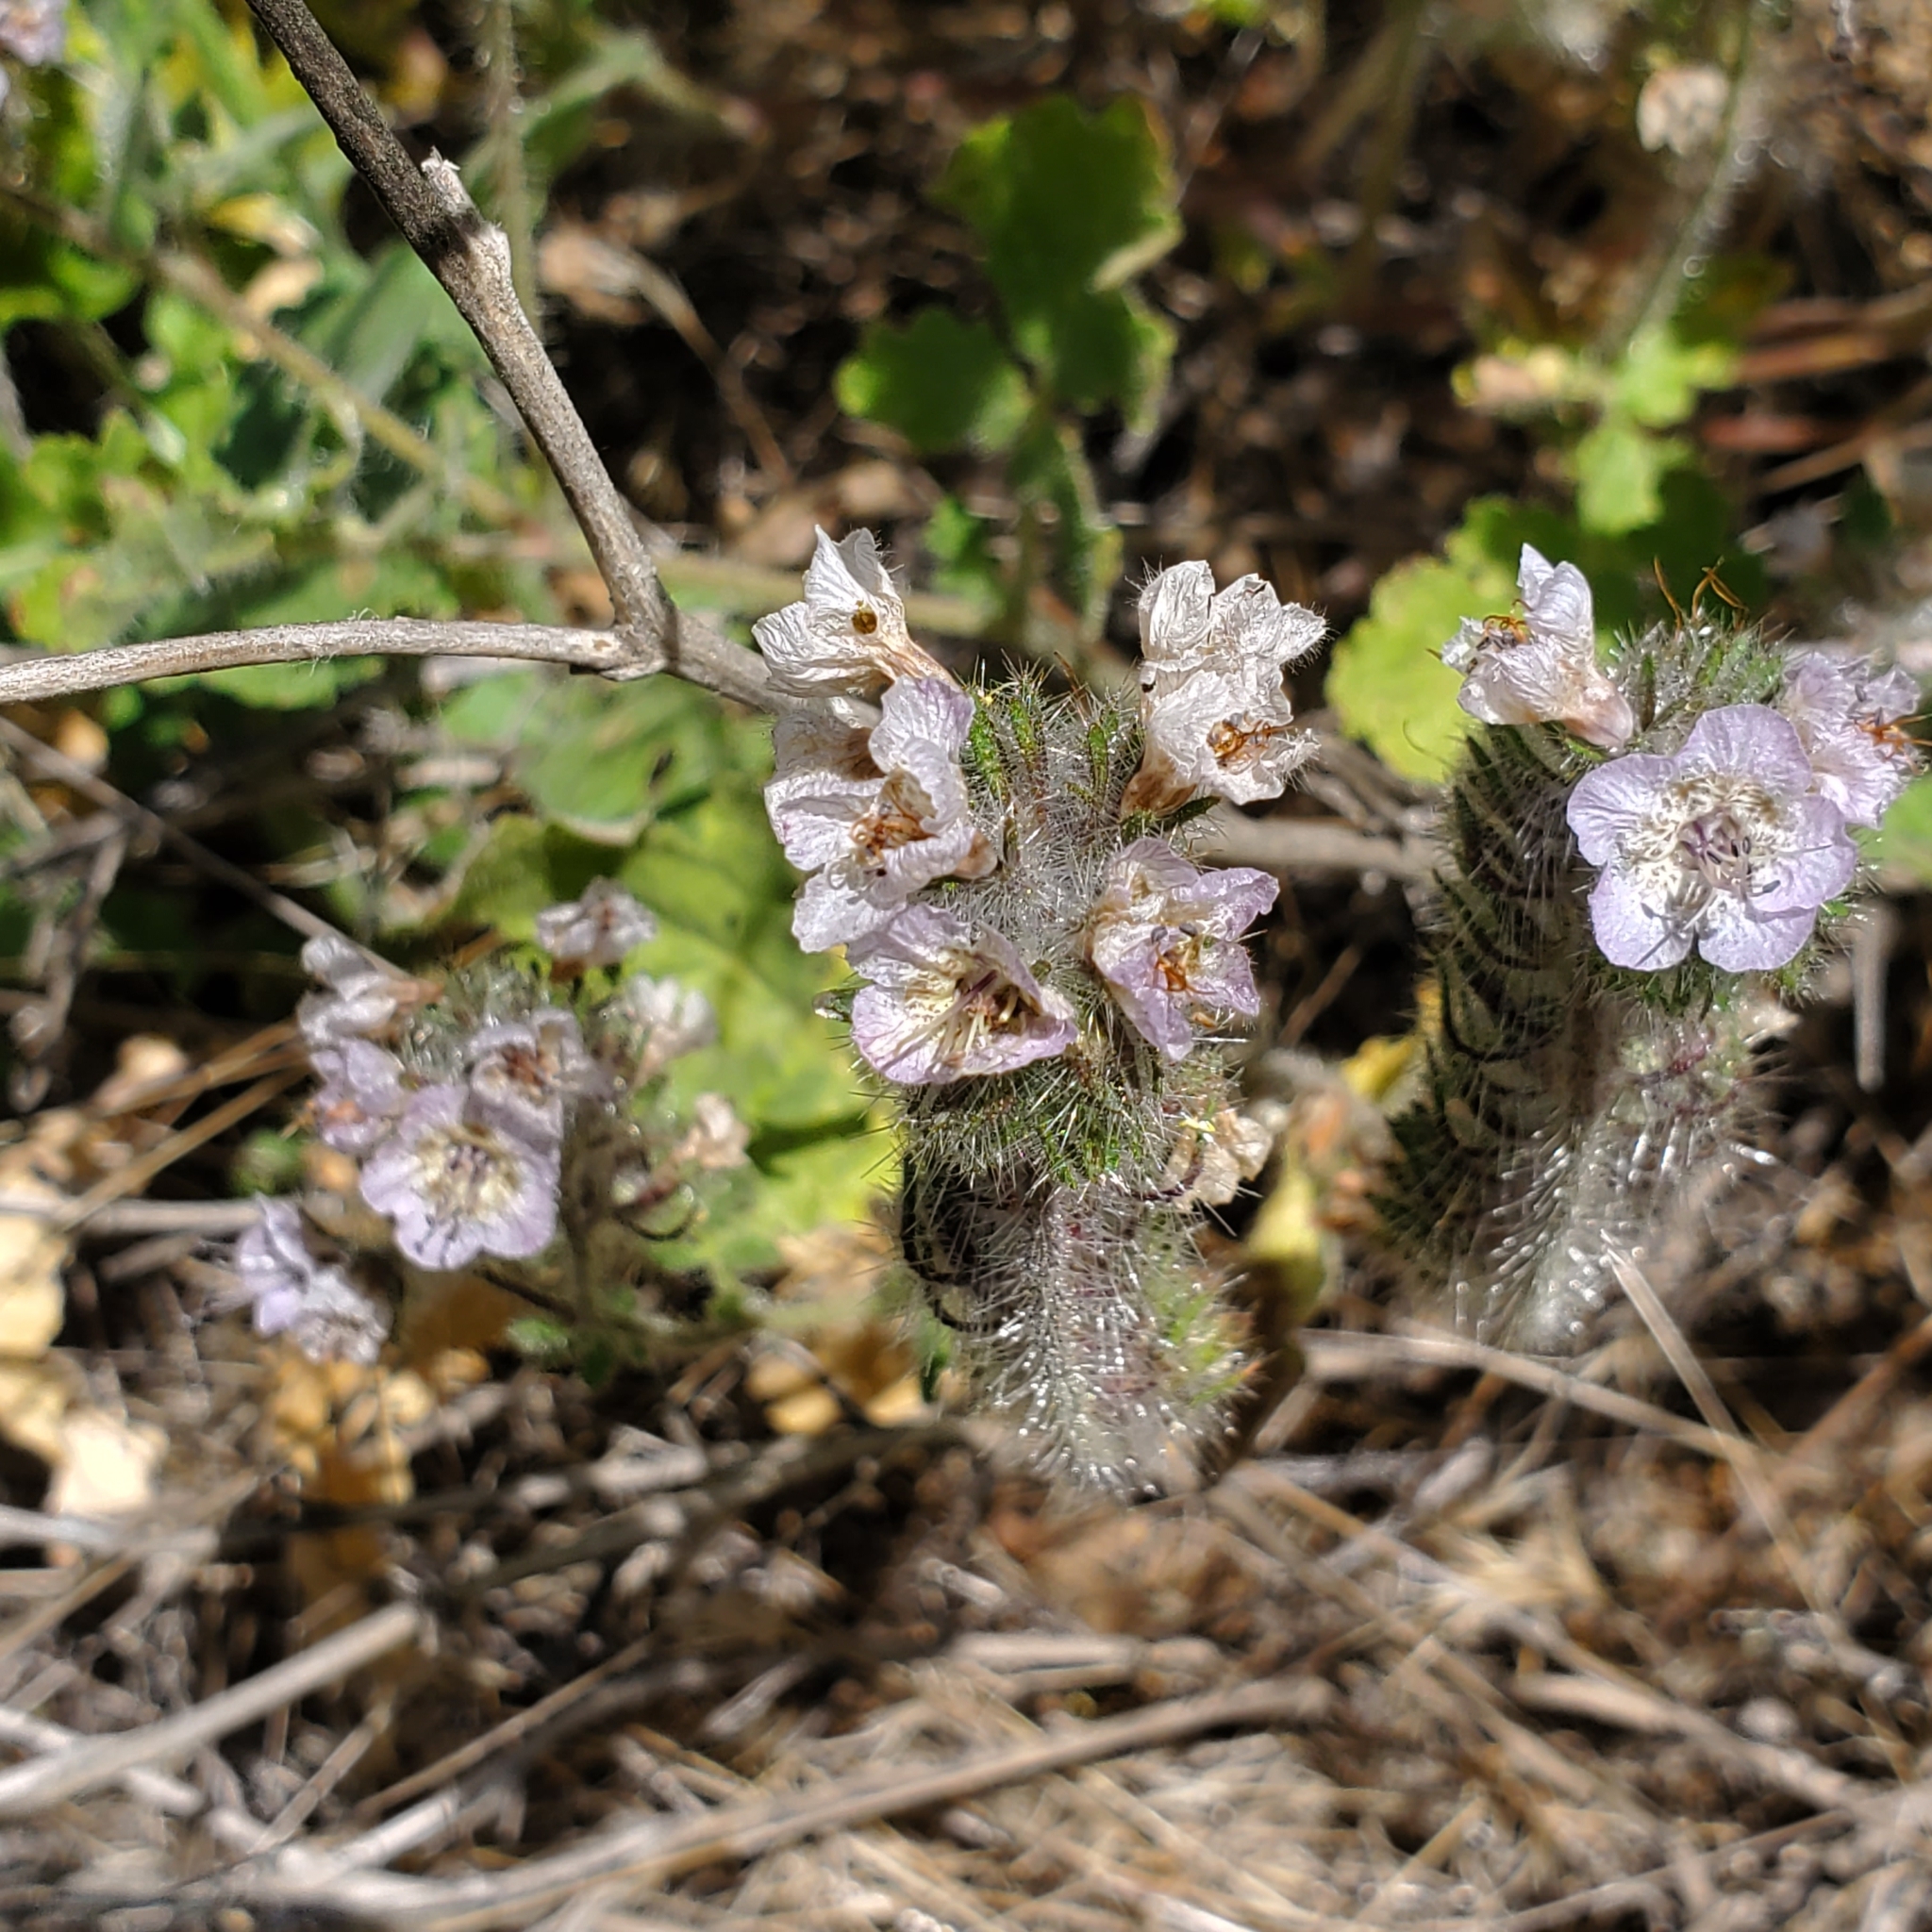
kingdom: Plantae
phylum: Tracheophyta
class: Magnoliopsida
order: Boraginales
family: Hydrophyllaceae
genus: Phacelia
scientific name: Phacelia cicutaria
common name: Caterpillar phacelia
